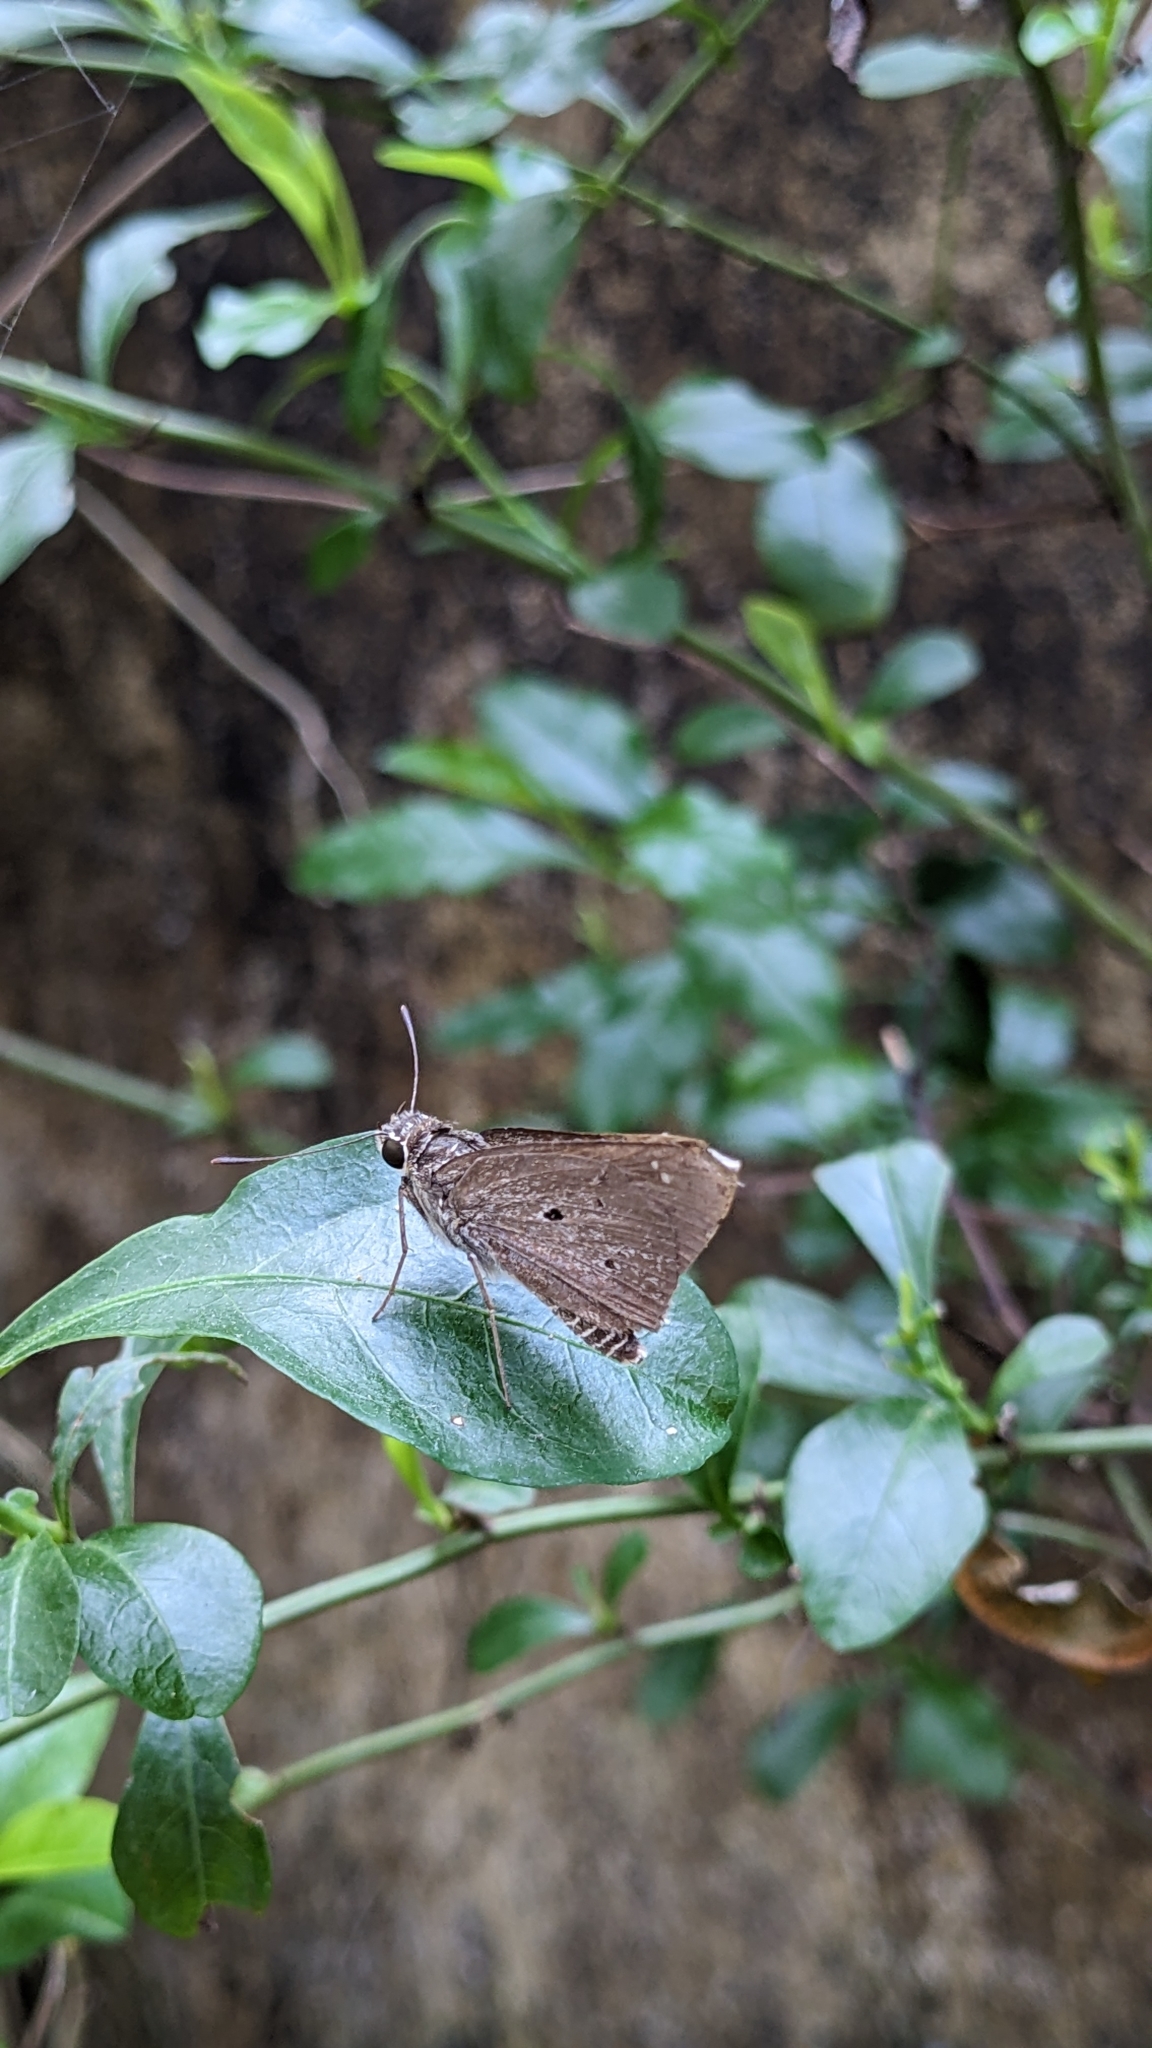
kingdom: Animalia
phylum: Arthropoda
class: Insecta
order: Lepidoptera
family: Hesperiidae
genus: Suastus
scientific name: Suastus gremius
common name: Indian palm bob
